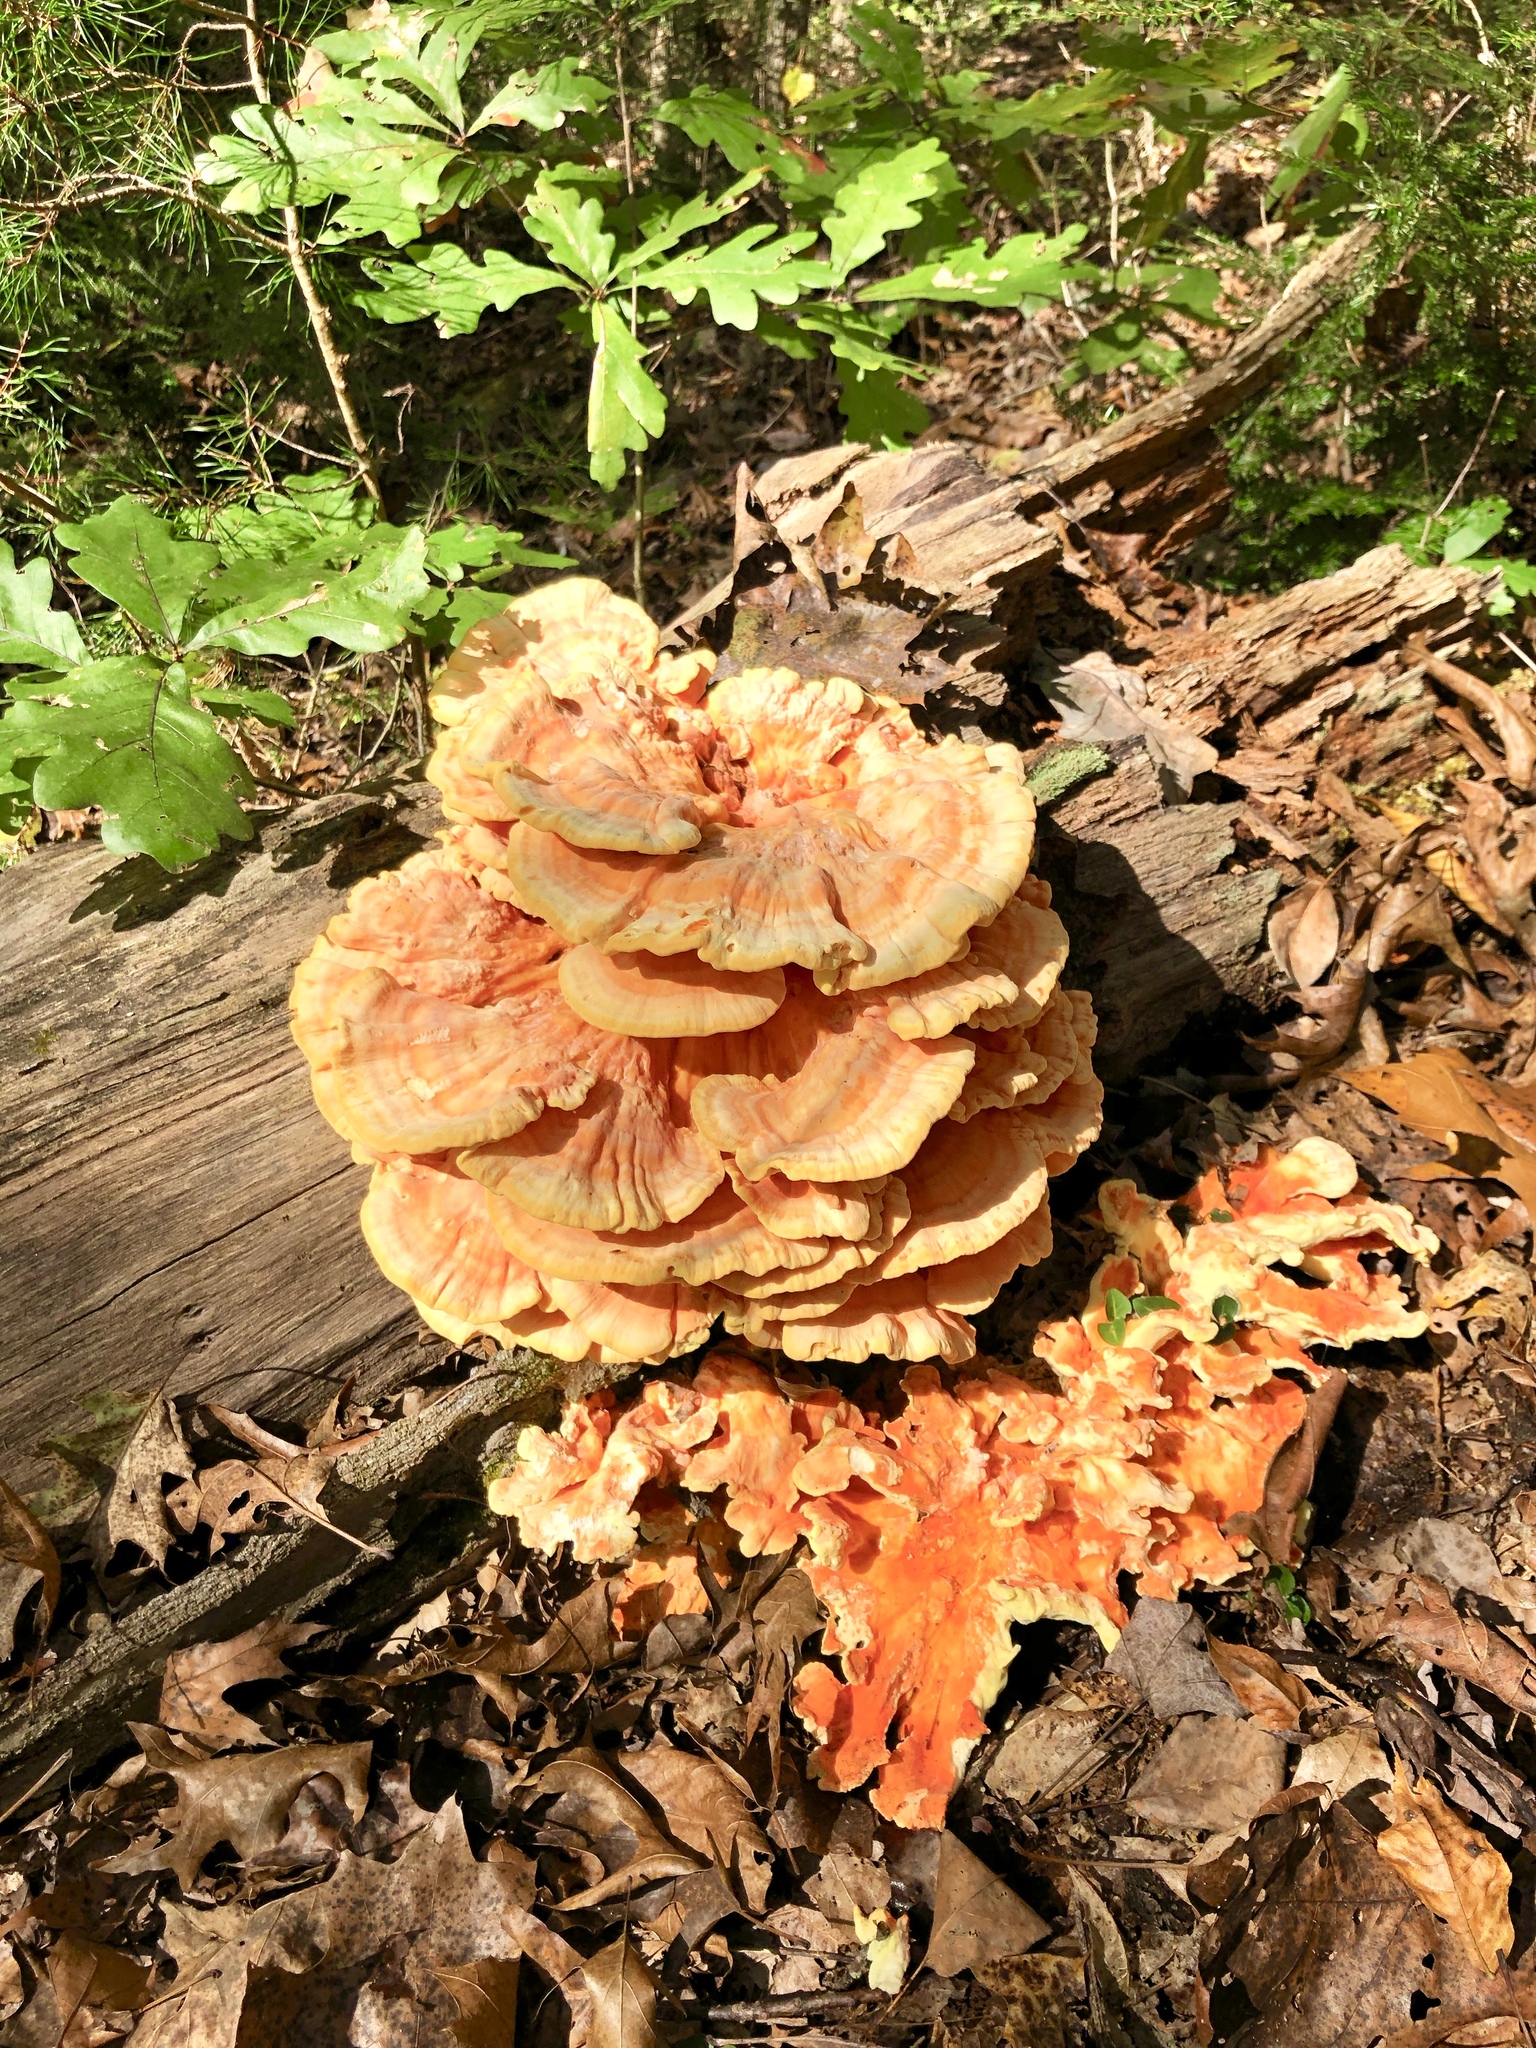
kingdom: Fungi
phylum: Basidiomycota
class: Agaricomycetes
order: Polyporales
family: Laetiporaceae
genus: Laetiporus
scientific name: Laetiporus sulphureus
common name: Chicken of the woods
